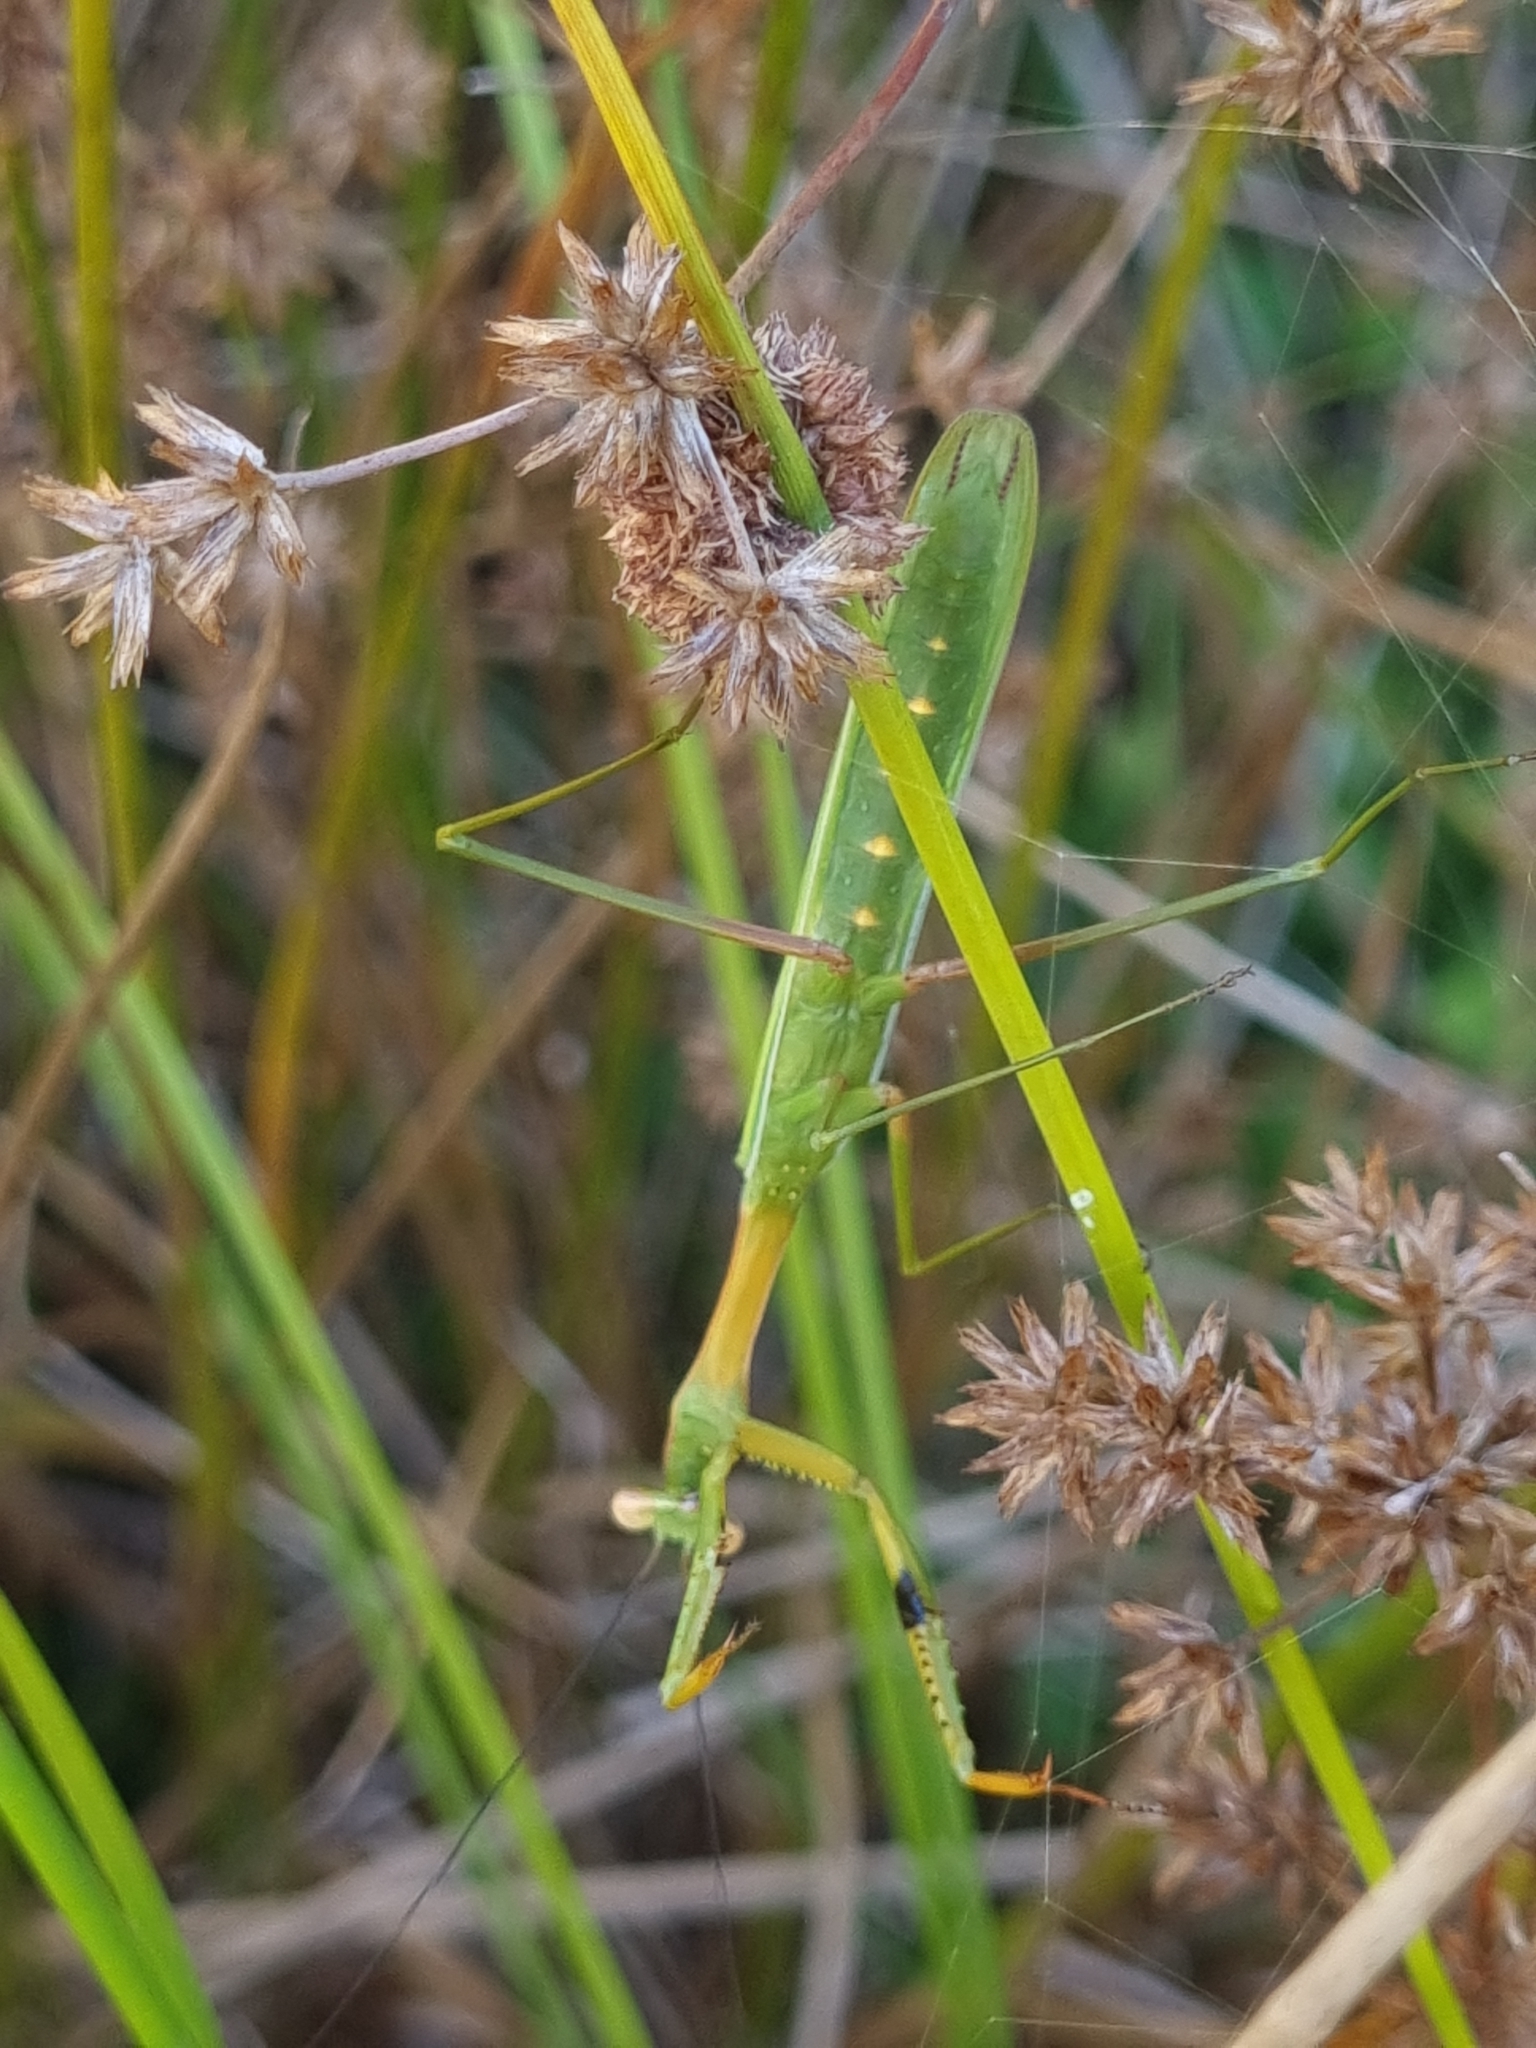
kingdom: Animalia
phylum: Arthropoda
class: Insecta
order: Mantodea
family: Mantidae
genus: Pseudomantis
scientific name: Pseudomantis albofimbriata
